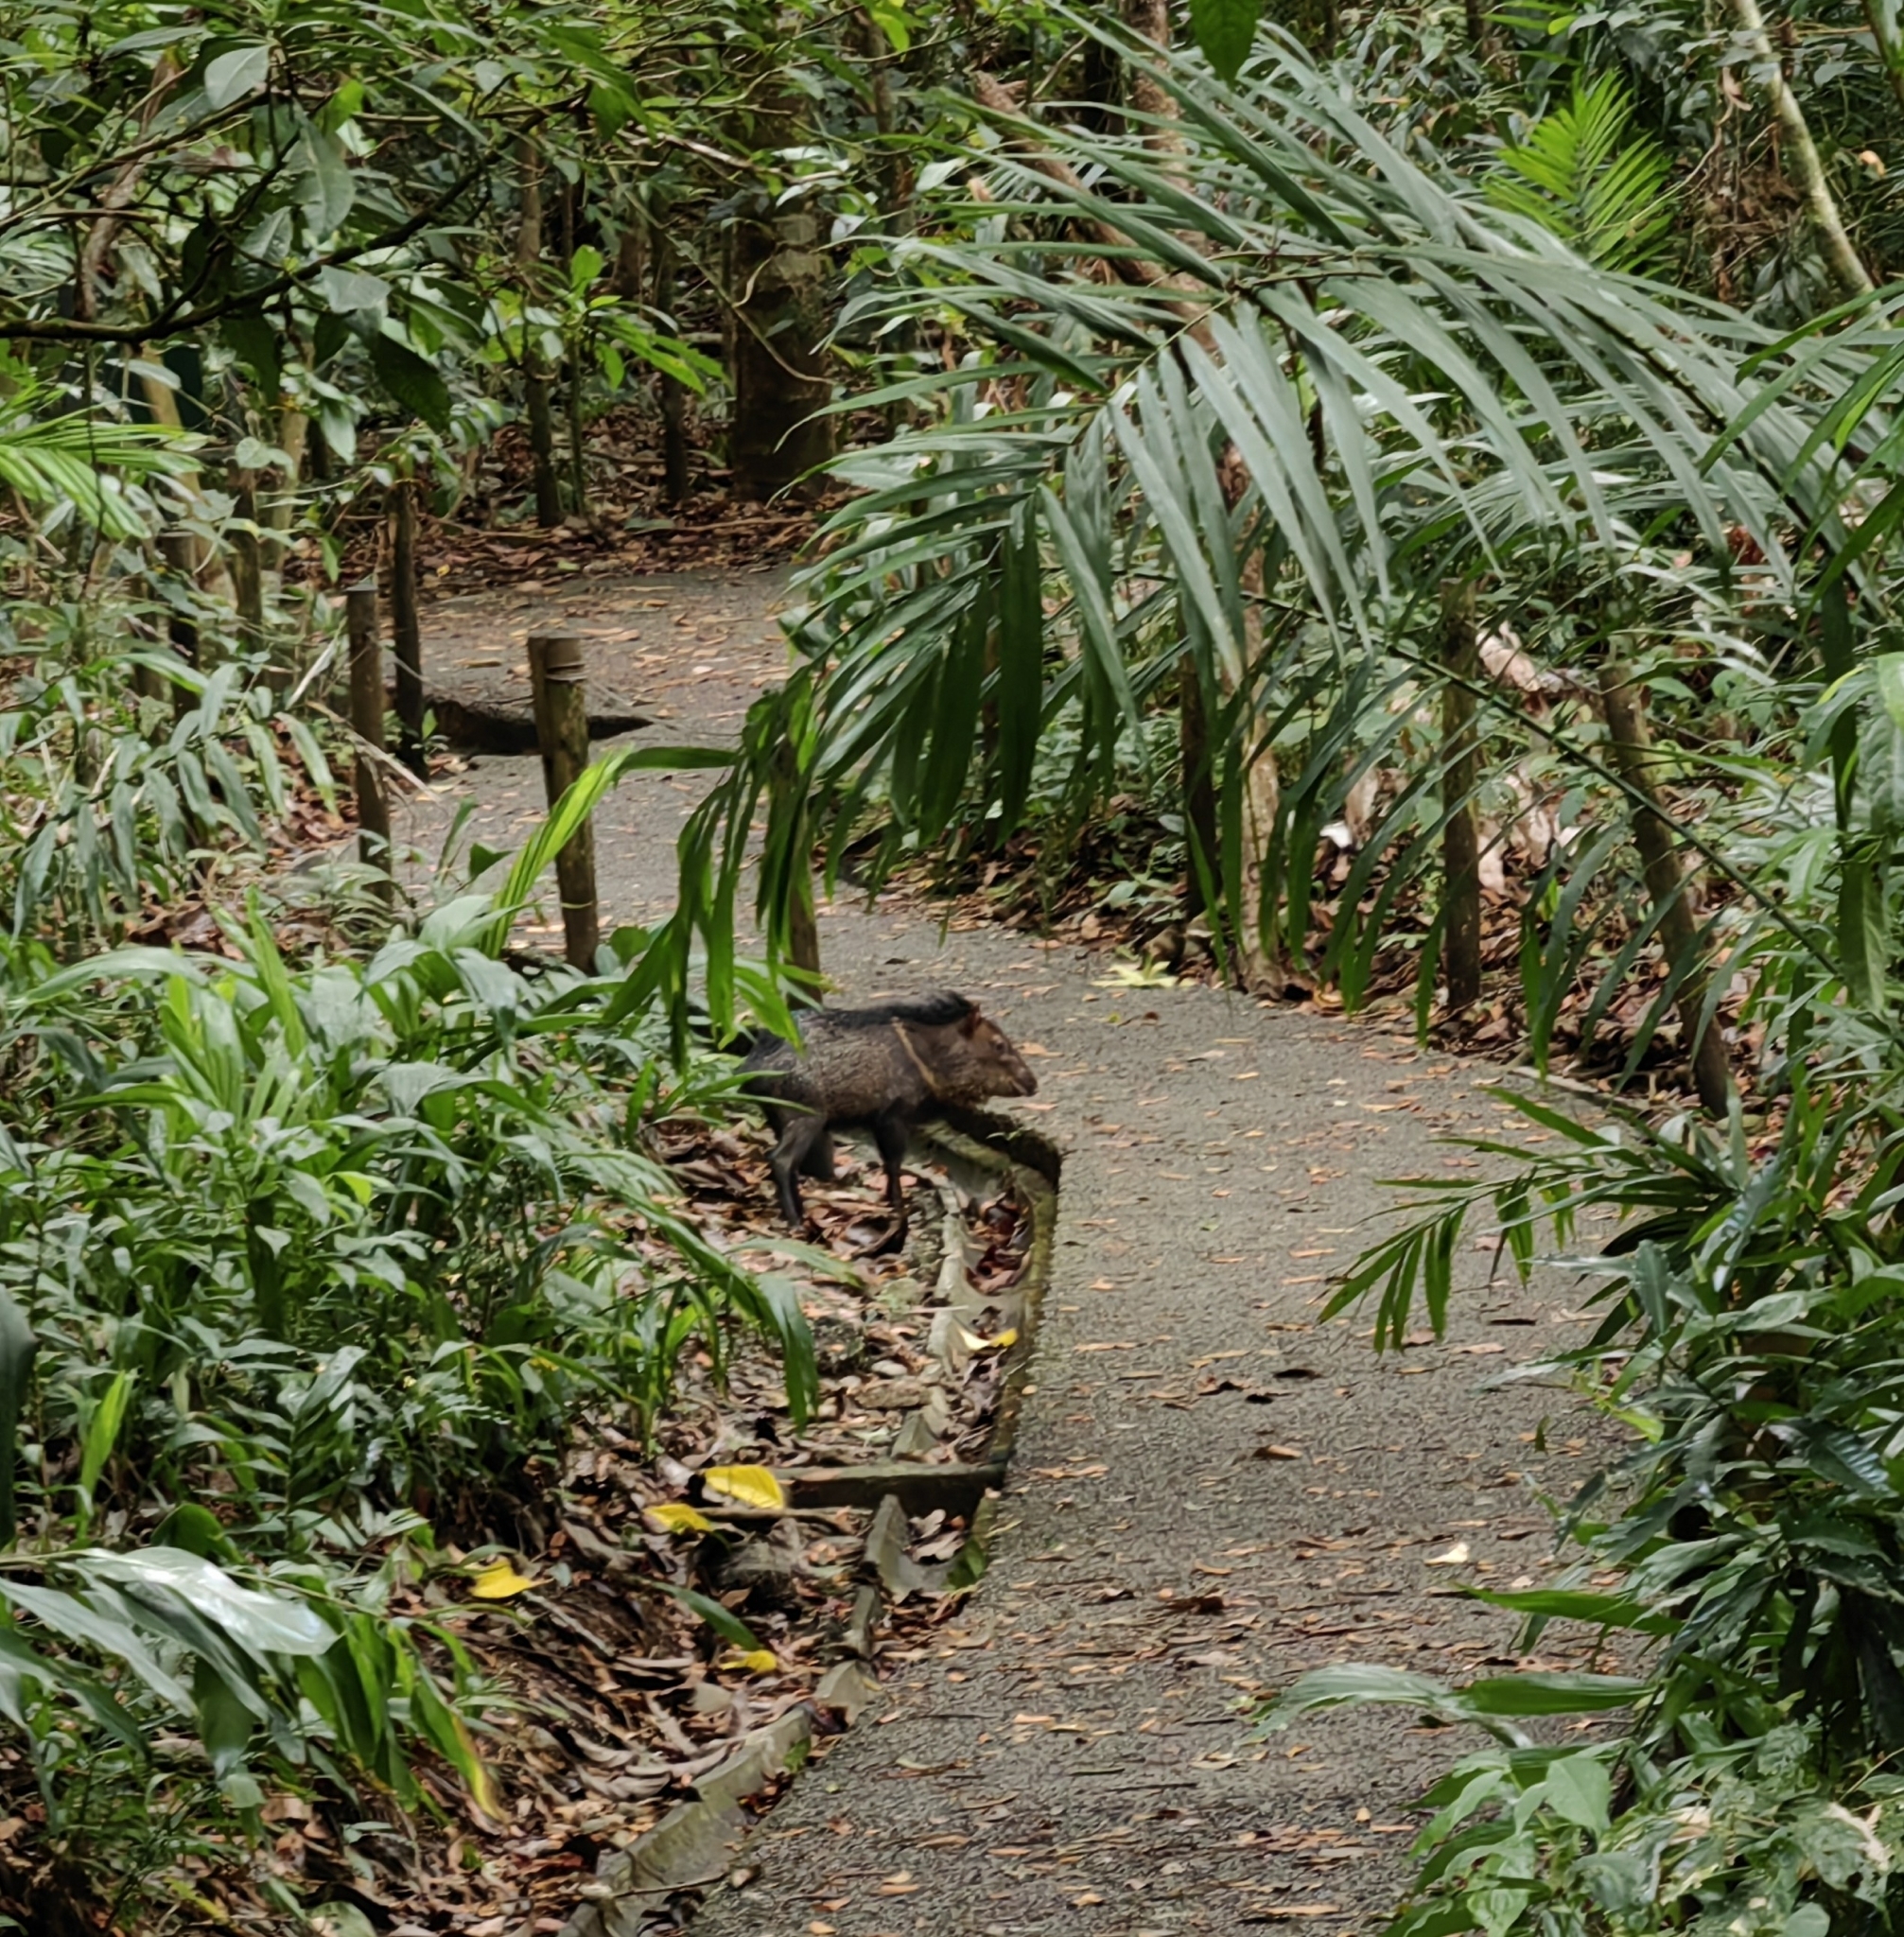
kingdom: Animalia
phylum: Chordata
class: Mammalia
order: Artiodactyla
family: Tayassuidae
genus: Pecari
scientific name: Pecari tajacu
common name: Collared peccary
